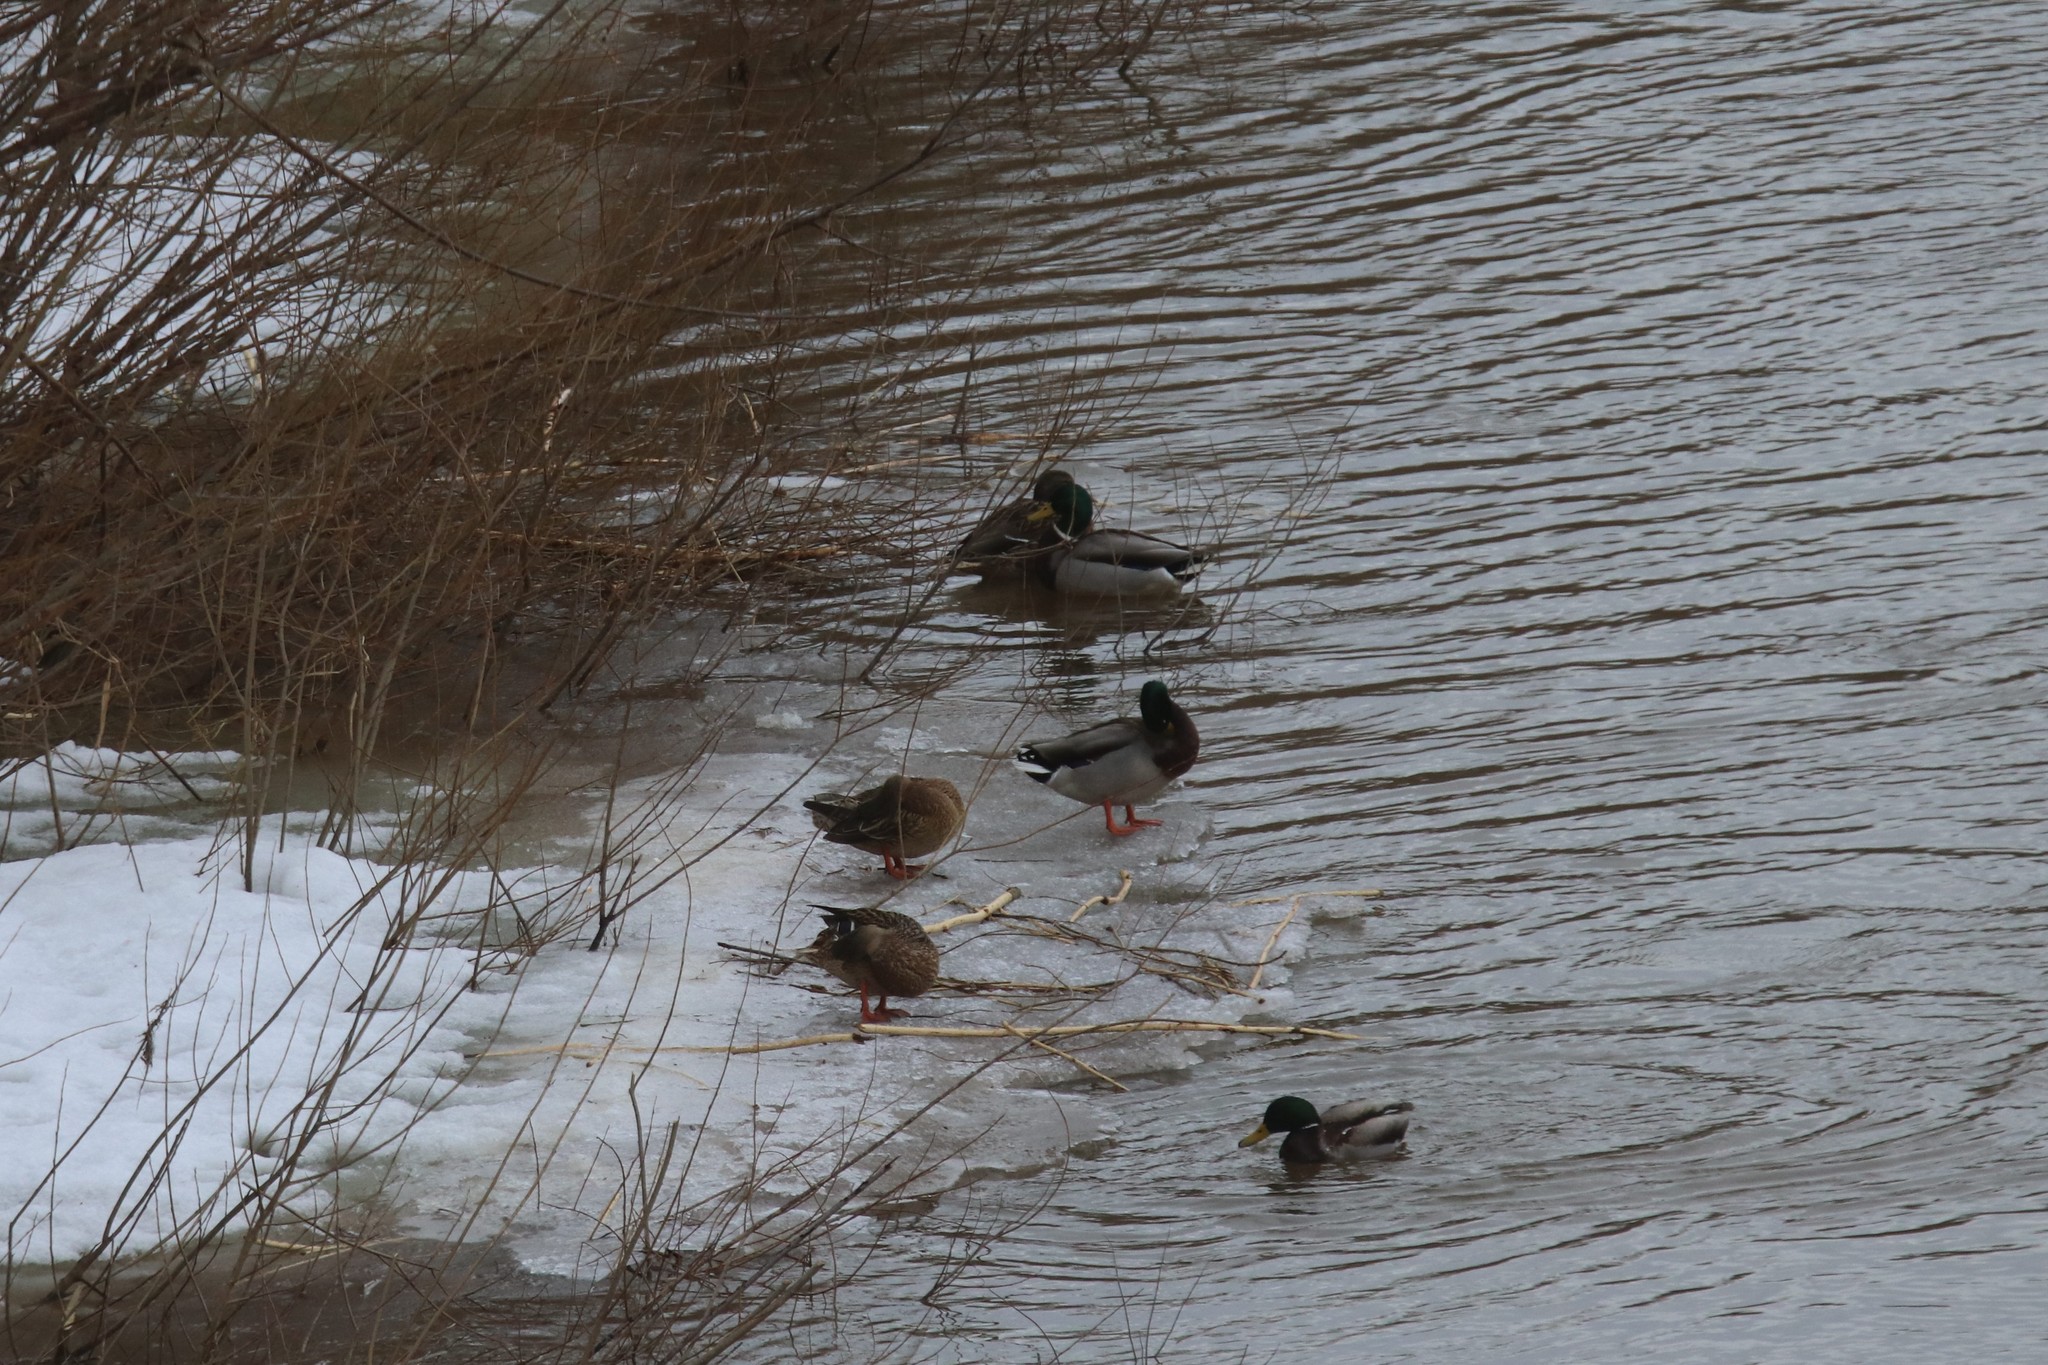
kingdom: Animalia
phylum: Chordata
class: Aves
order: Anseriformes
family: Anatidae
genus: Anas
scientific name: Anas platyrhynchos
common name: Mallard
